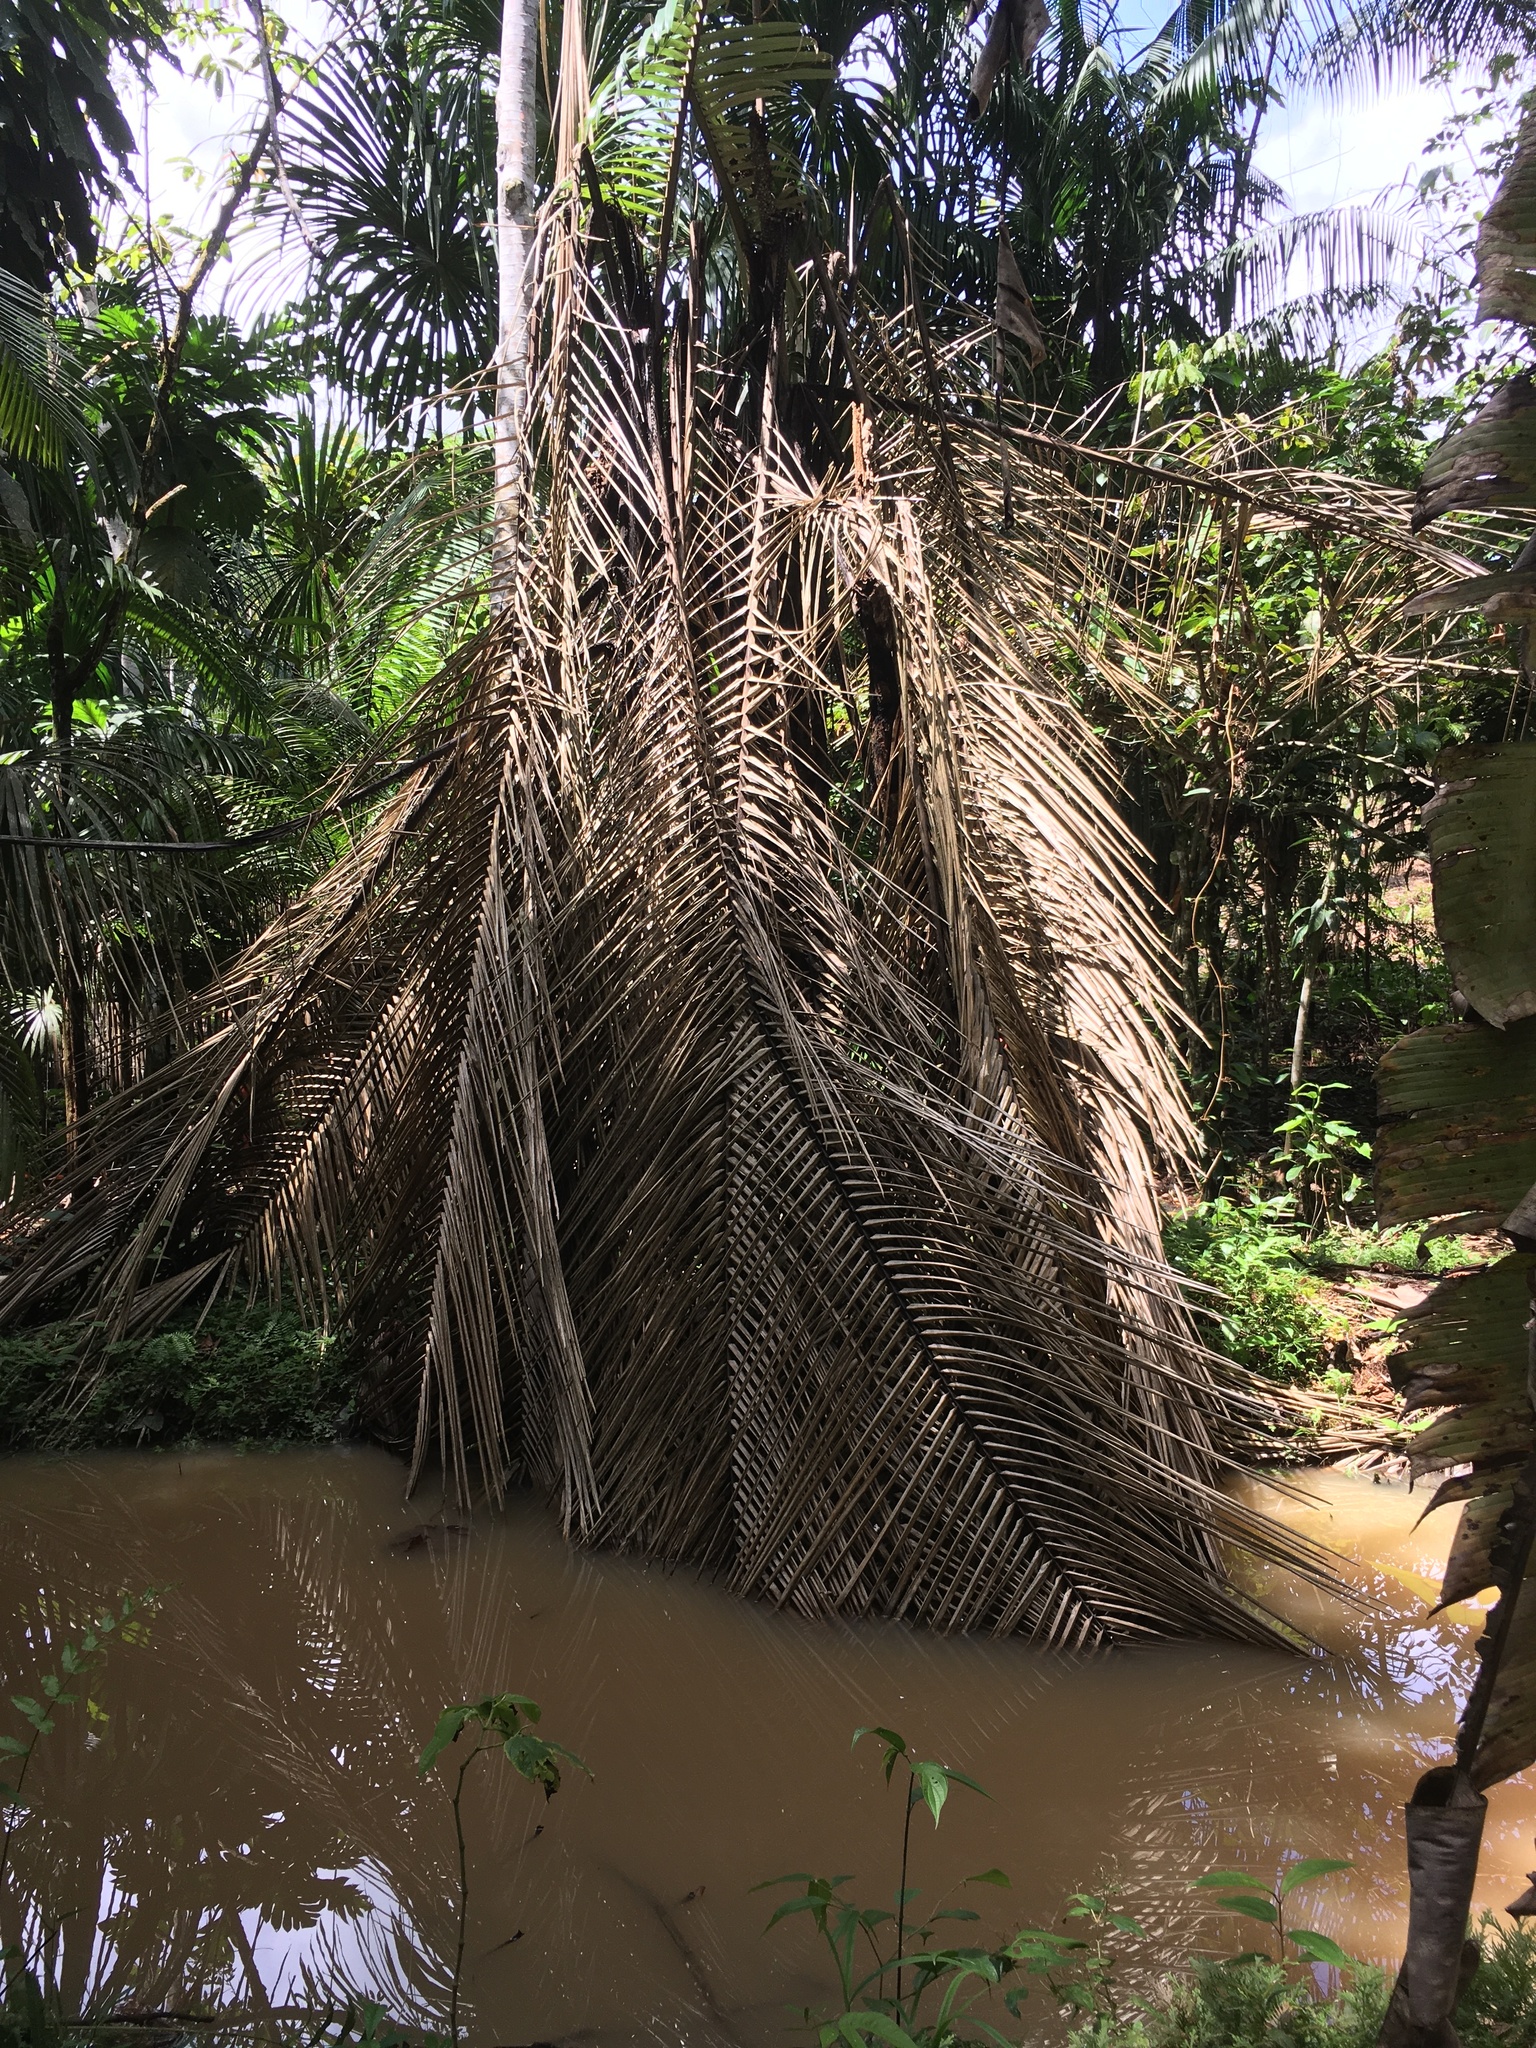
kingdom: Plantae
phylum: Tracheophyta
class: Liliopsida
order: Arecales
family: Arecaceae
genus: Mauritia
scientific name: Mauritia flexuosa
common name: Tree-of-life
